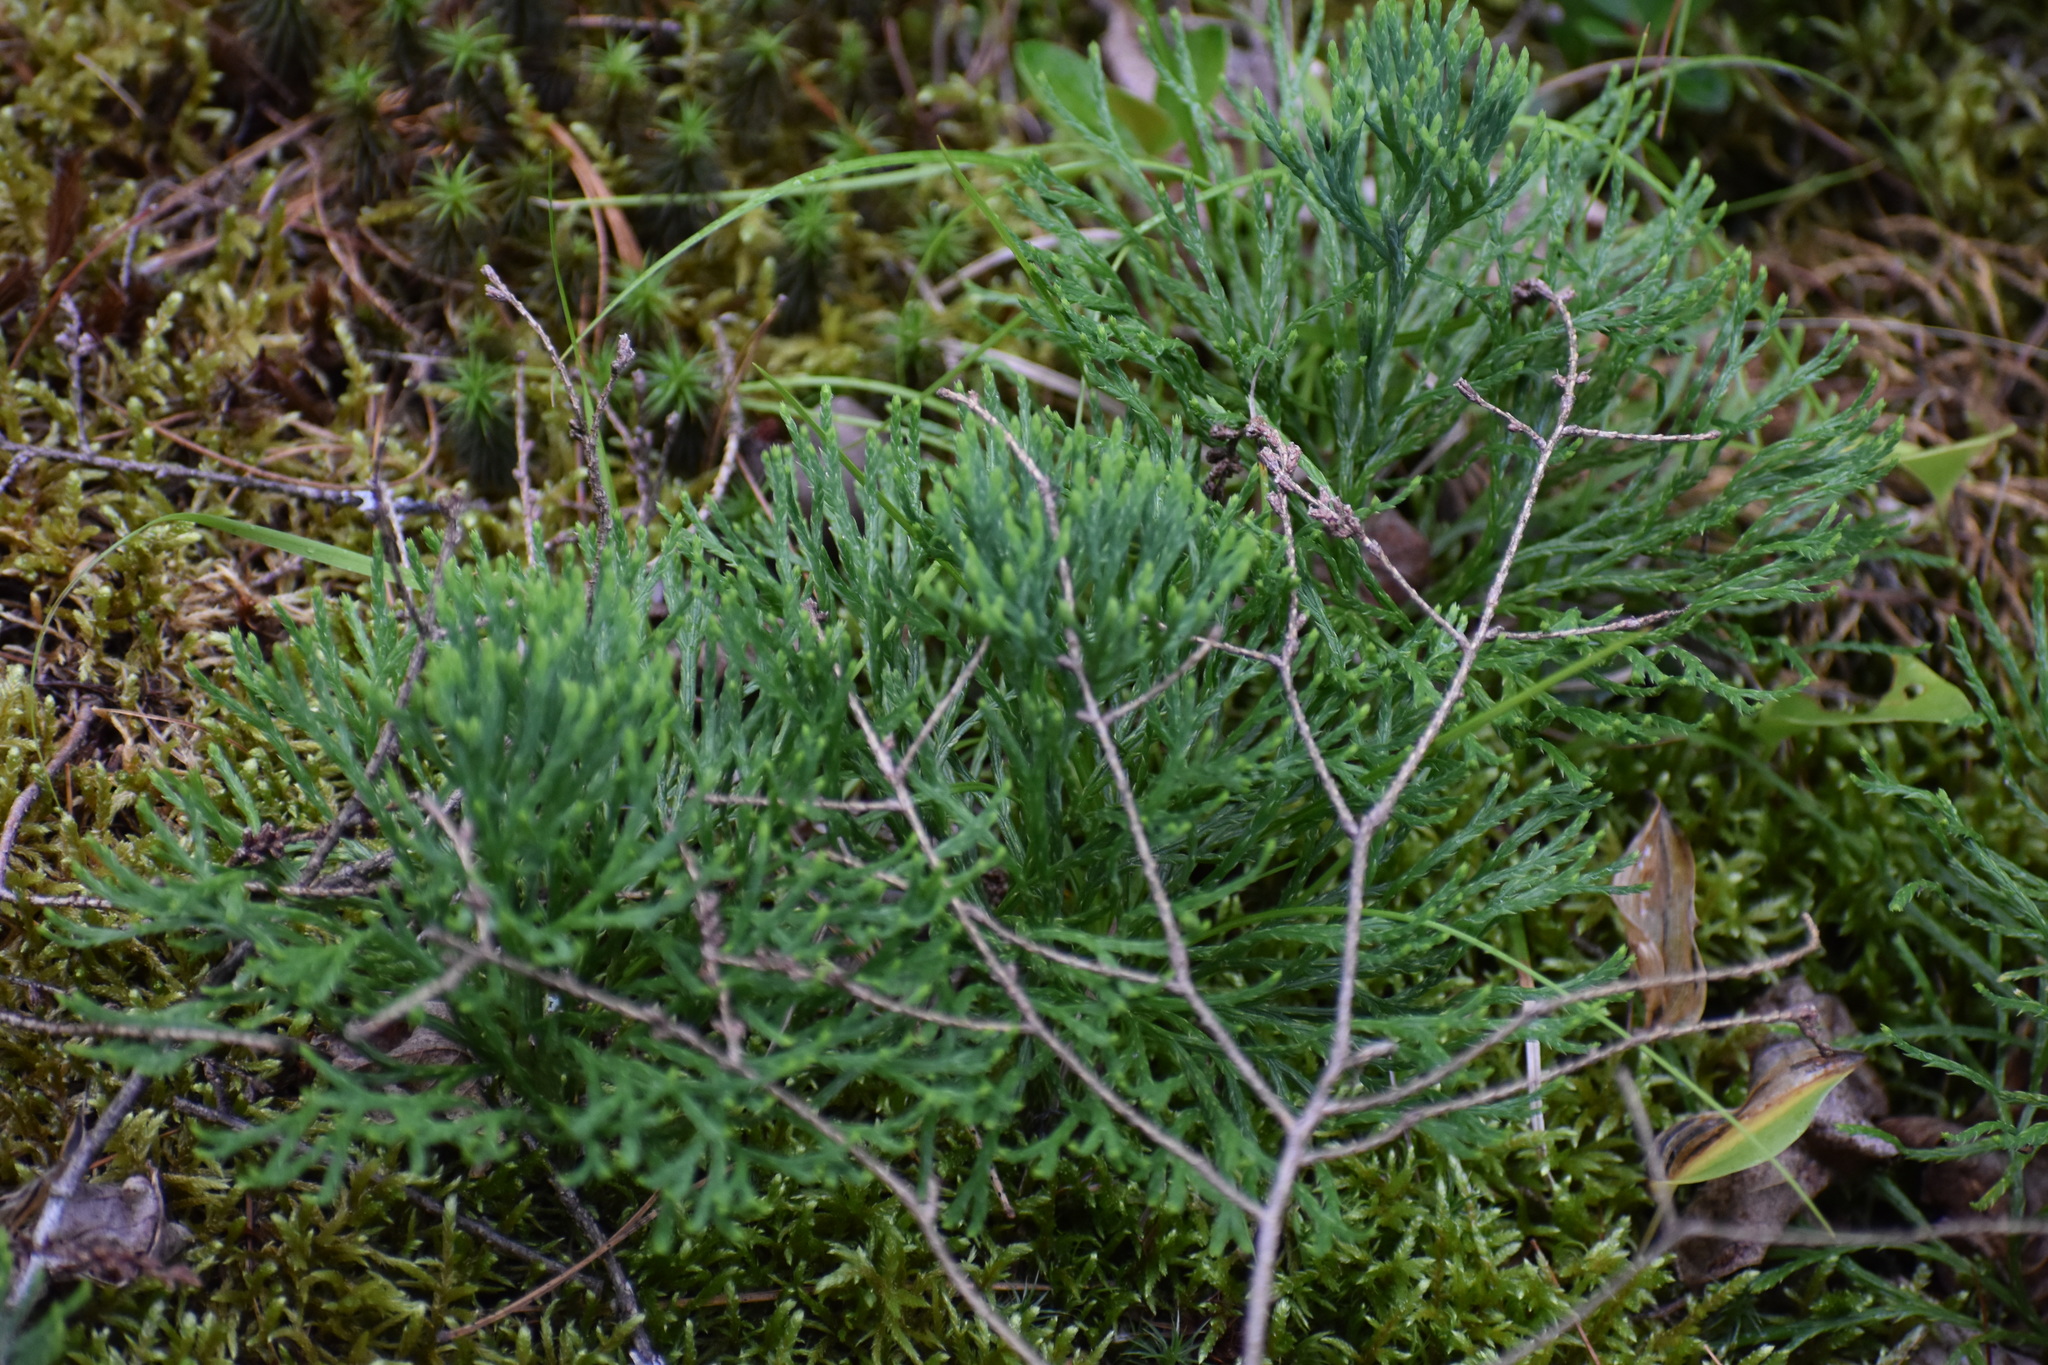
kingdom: Plantae
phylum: Tracheophyta
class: Lycopodiopsida
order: Lycopodiales
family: Lycopodiaceae
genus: Diphasiastrum
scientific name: Diphasiastrum tristachyum
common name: Blue ground-cedar
